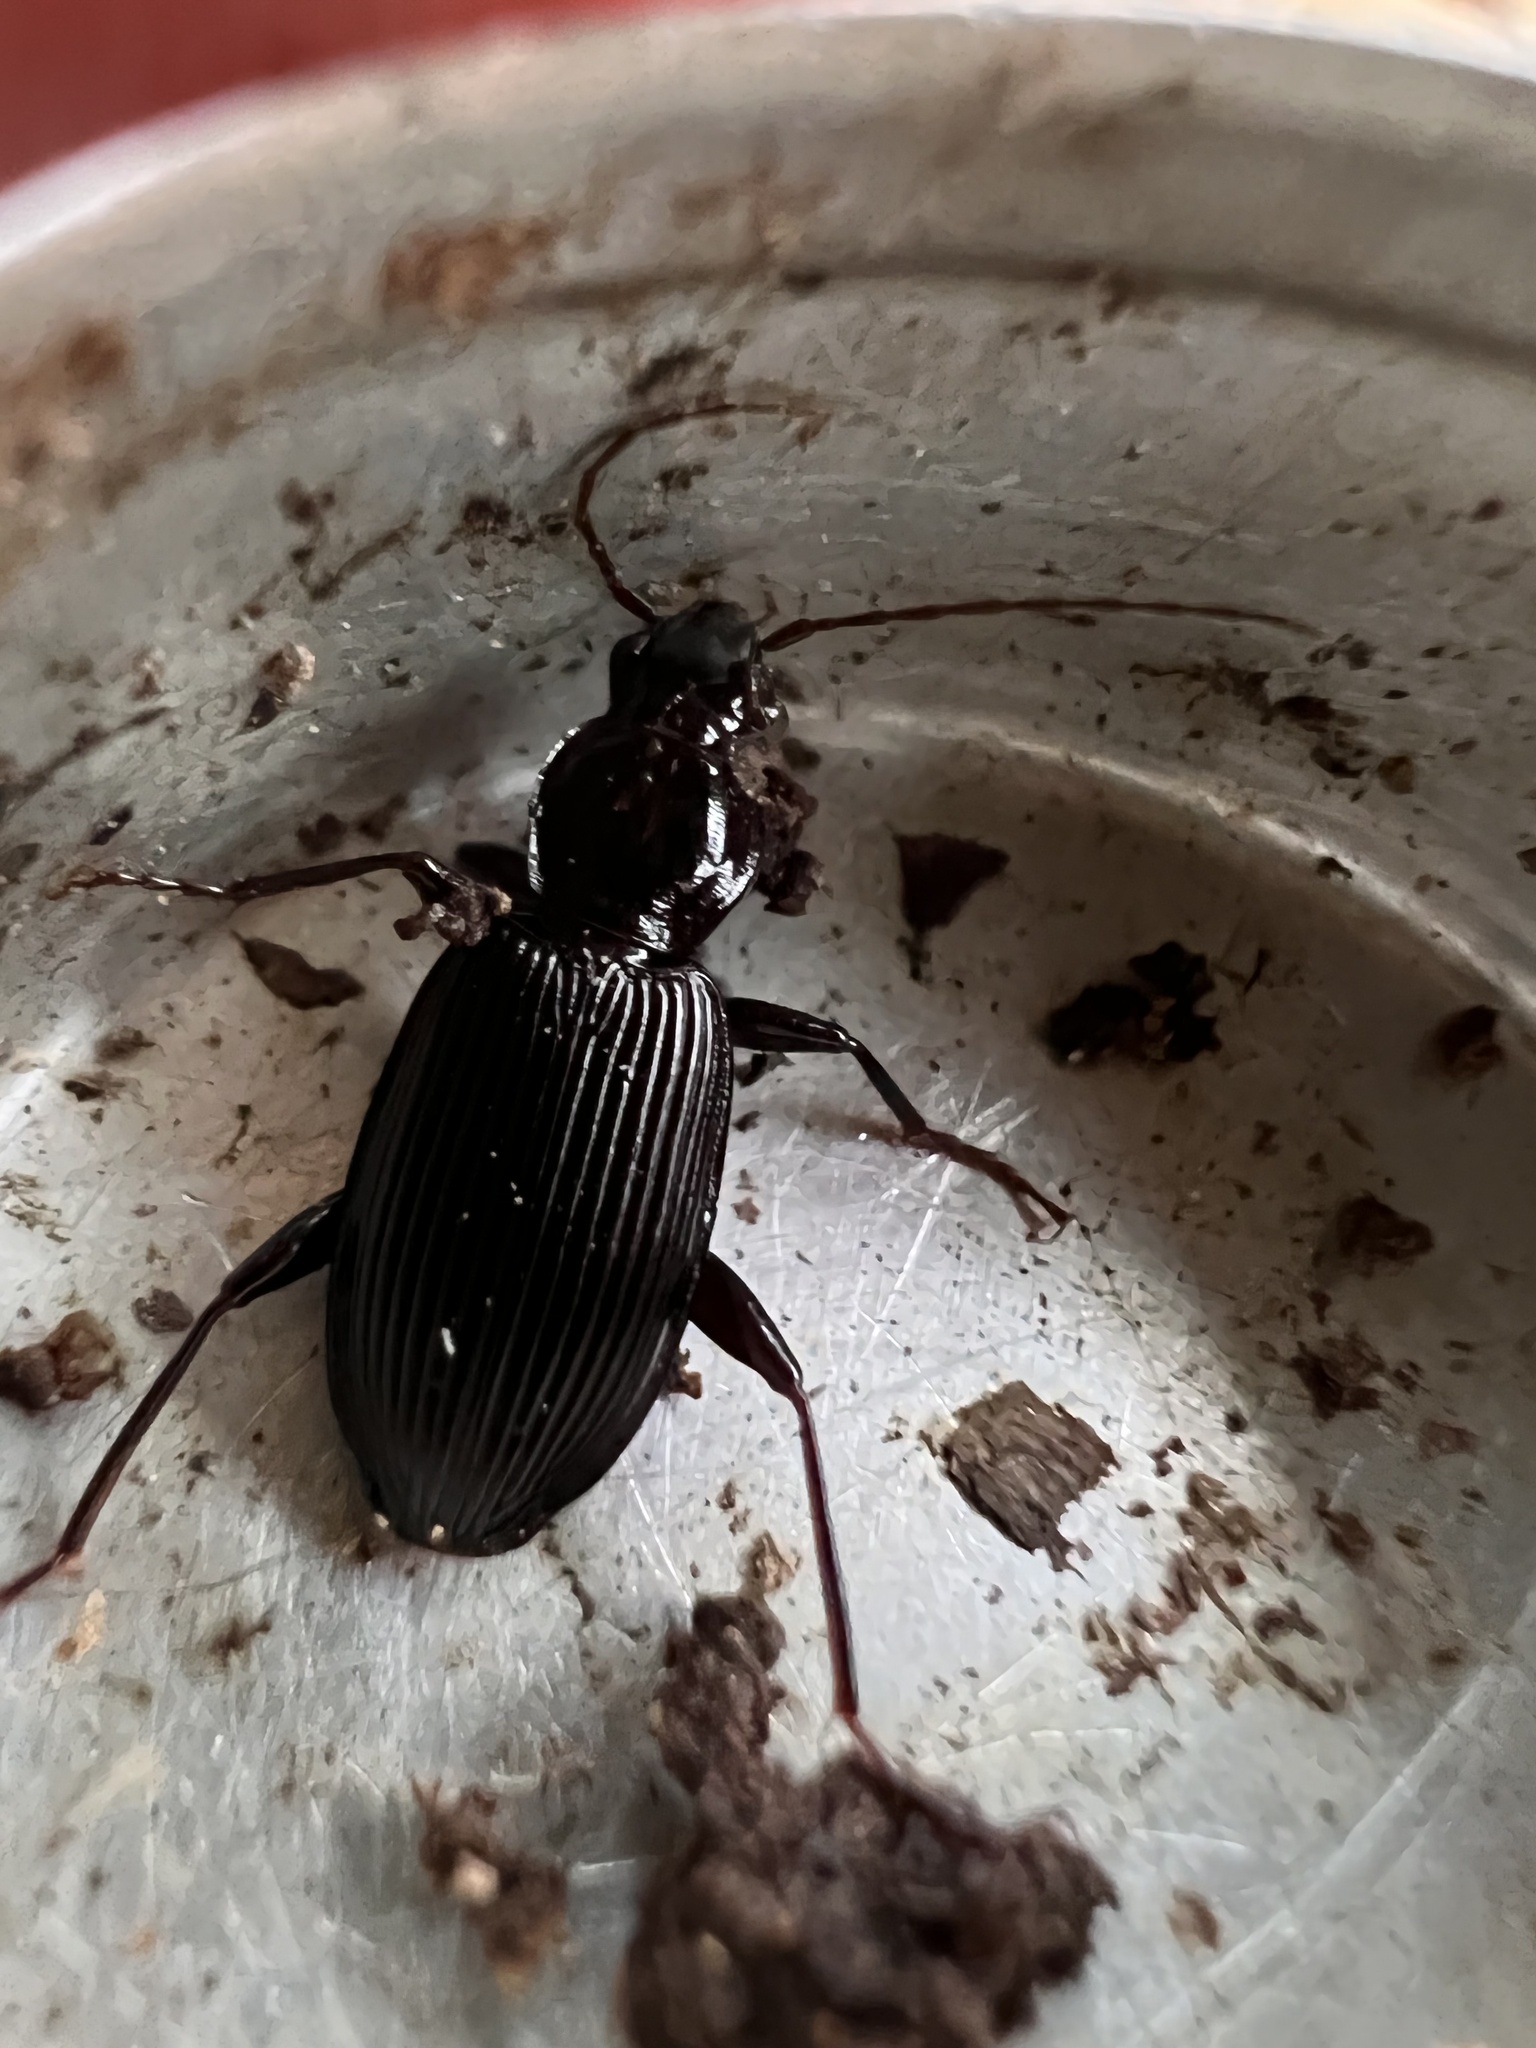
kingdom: Animalia
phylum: Arthropoda
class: Insecta
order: Coleoptera
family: Carabidae
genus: Platynus
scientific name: Platynus decentis
